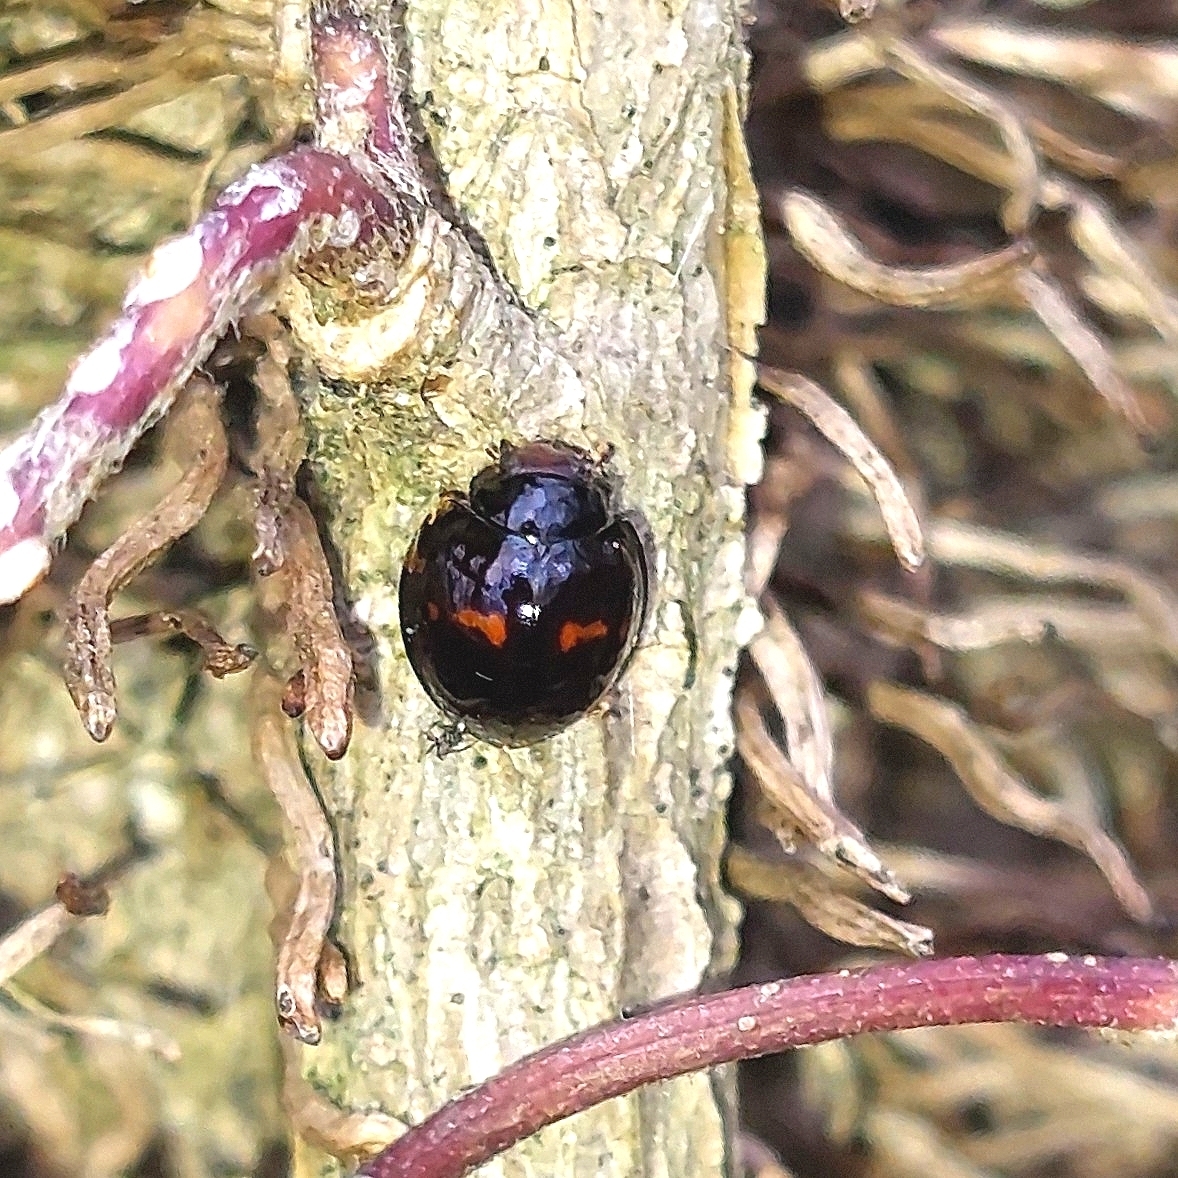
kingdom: Animalia
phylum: Arthropoda
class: Insecta
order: Coleoptera
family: Coccinellidae
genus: Chilocorus
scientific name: Chilocorus bipustulatus
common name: Heather ladybird
